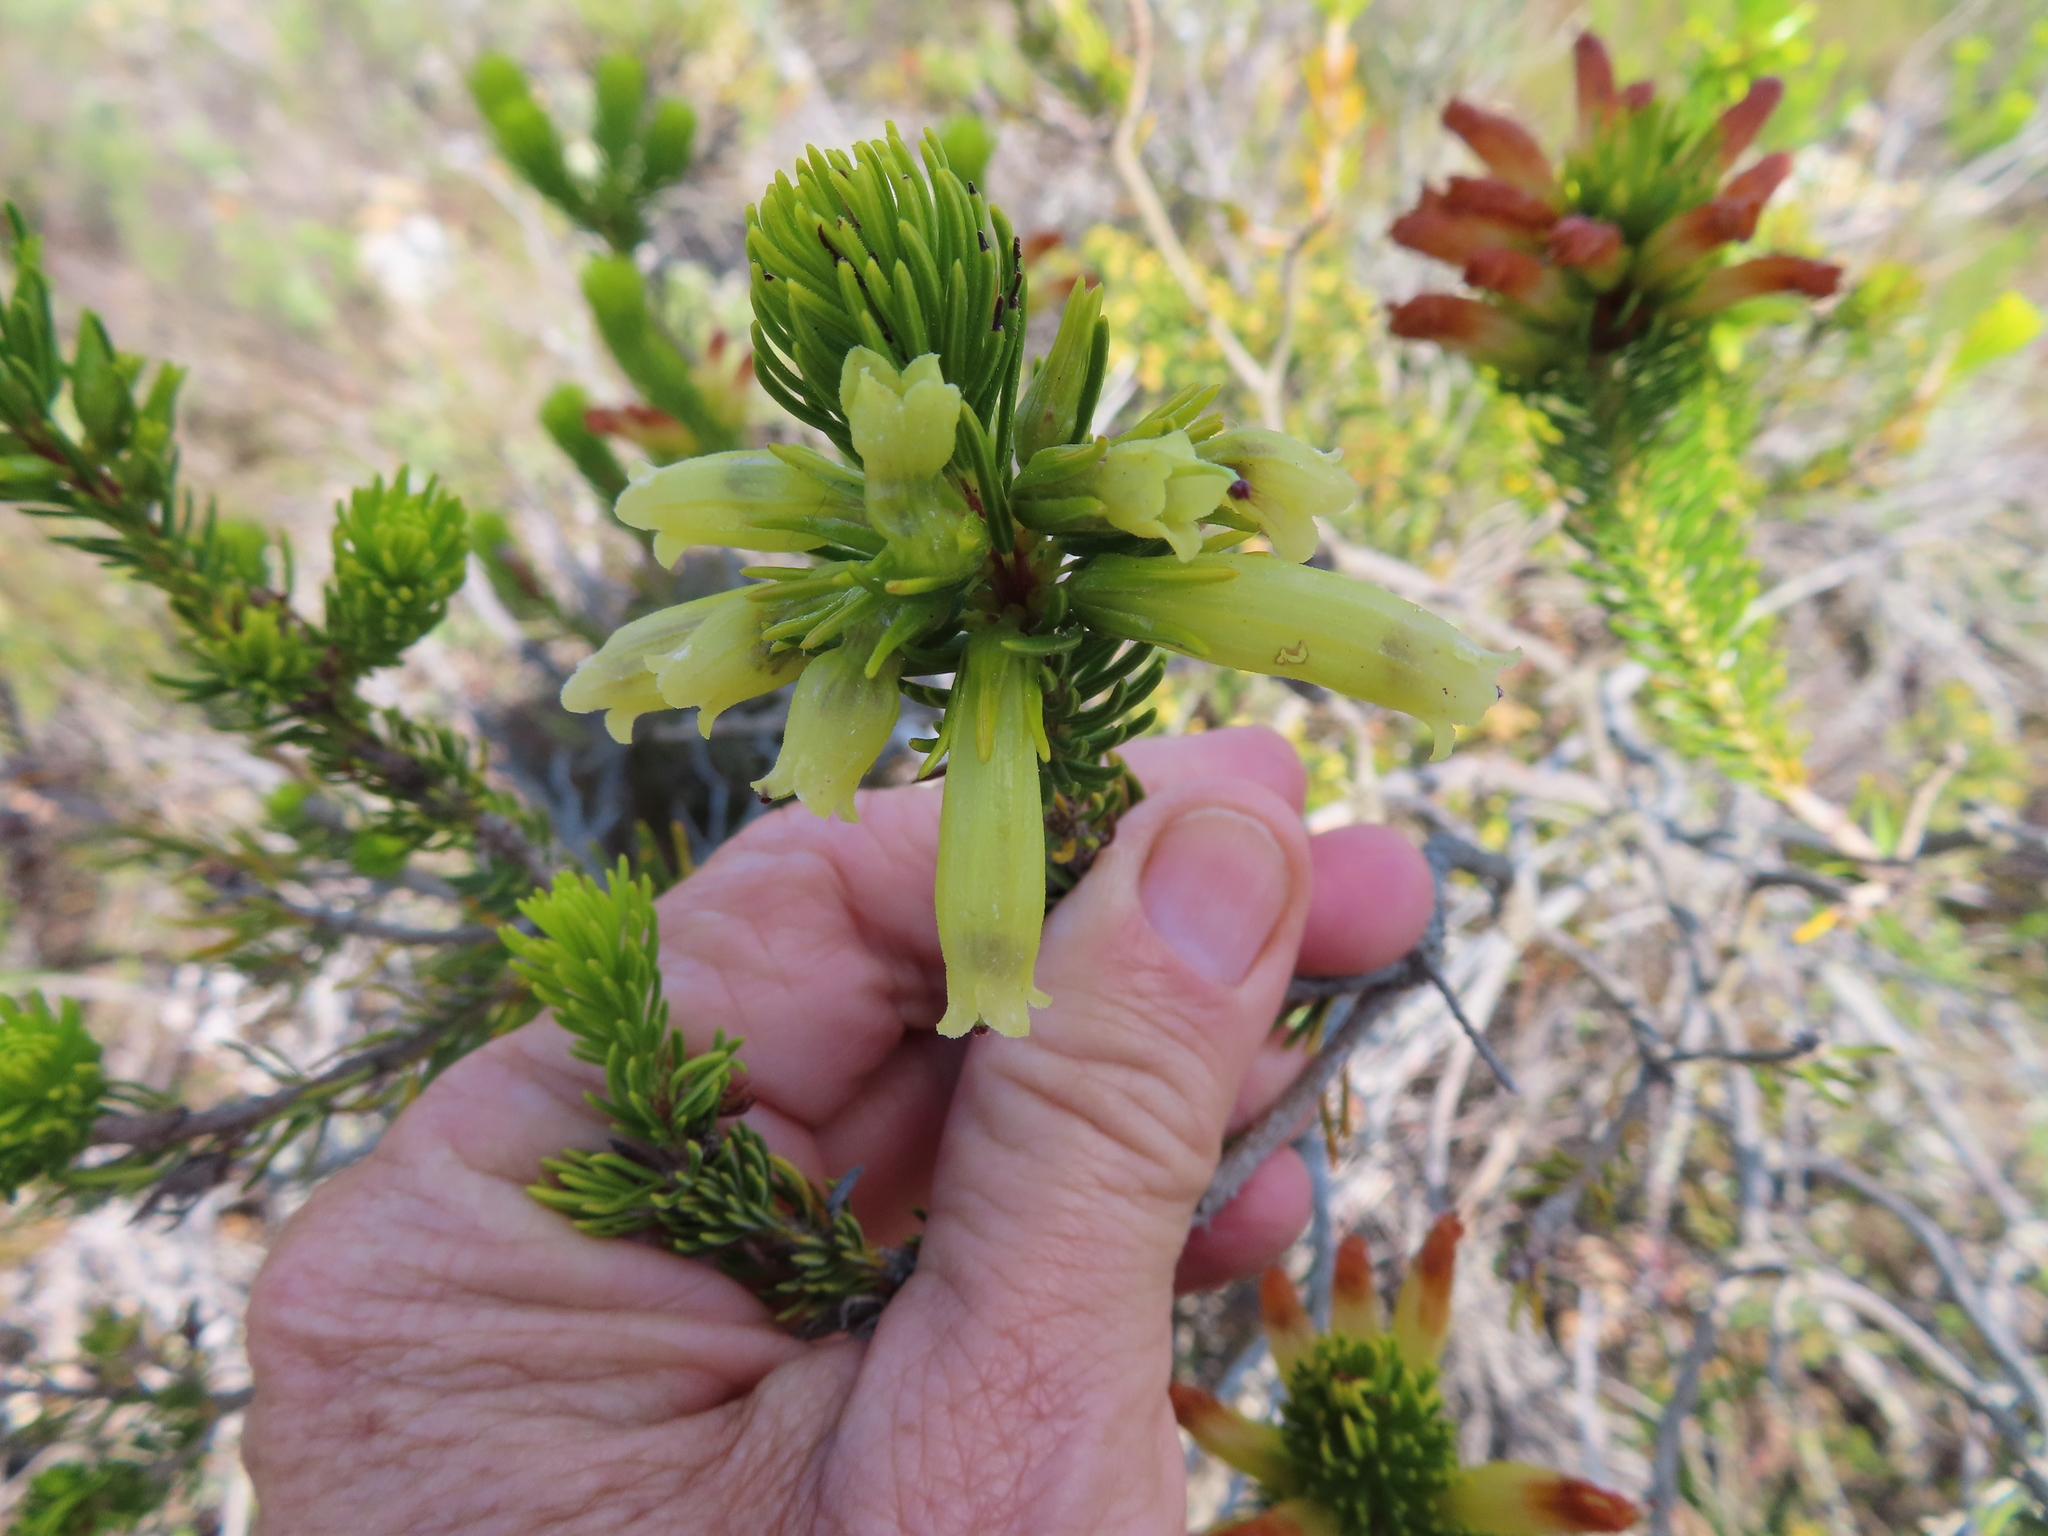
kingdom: Plantae
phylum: Tracheophyta
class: Magnoliopsida
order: Ericales
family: Ericaceae
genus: Erica
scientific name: Erica viscaria
